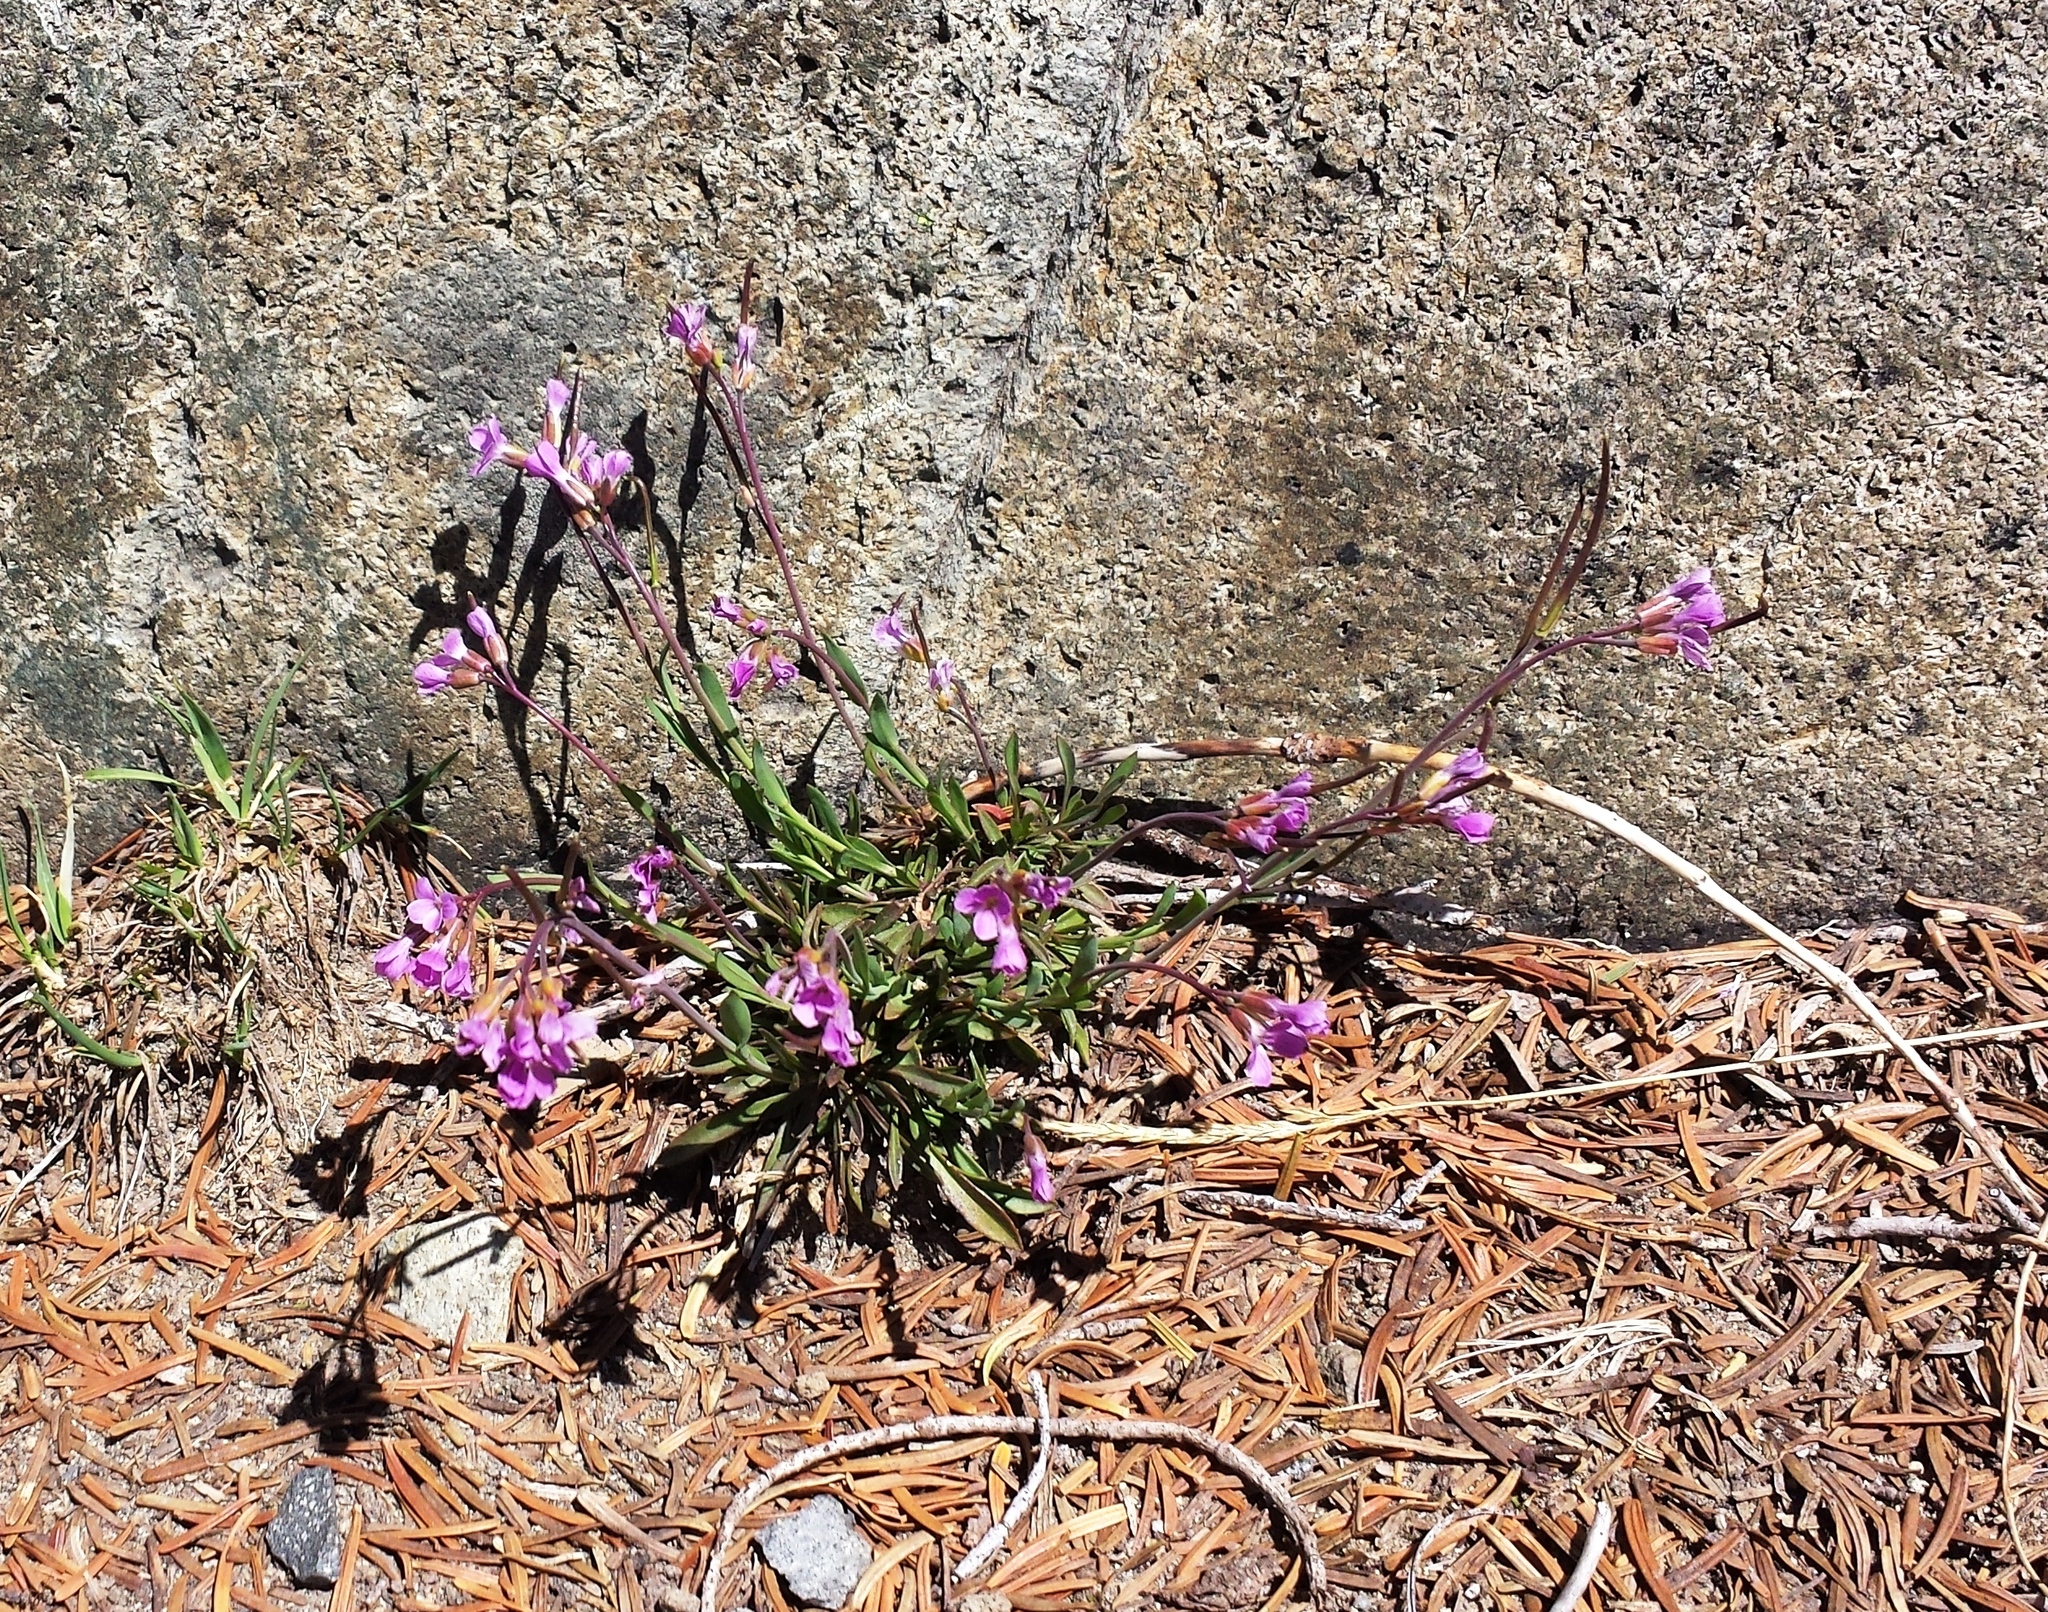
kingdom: Plantae
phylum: Tracheophyta
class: Magnoliopsida
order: Brassicales
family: Brassicaceae
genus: Boechera
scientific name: Boechera lyallii
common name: Lyall's rockcress
